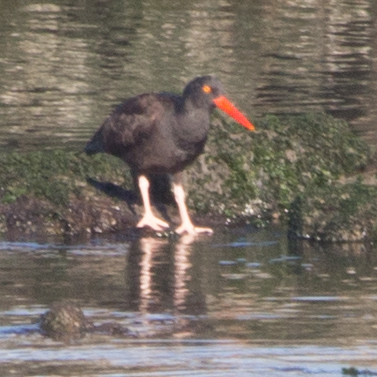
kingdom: Animalia
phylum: Chordata
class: Aves
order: Charadriiformes
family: Haematopodidae
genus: Haematopus
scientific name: Haematopus bachmani
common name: Black oystercatcher
